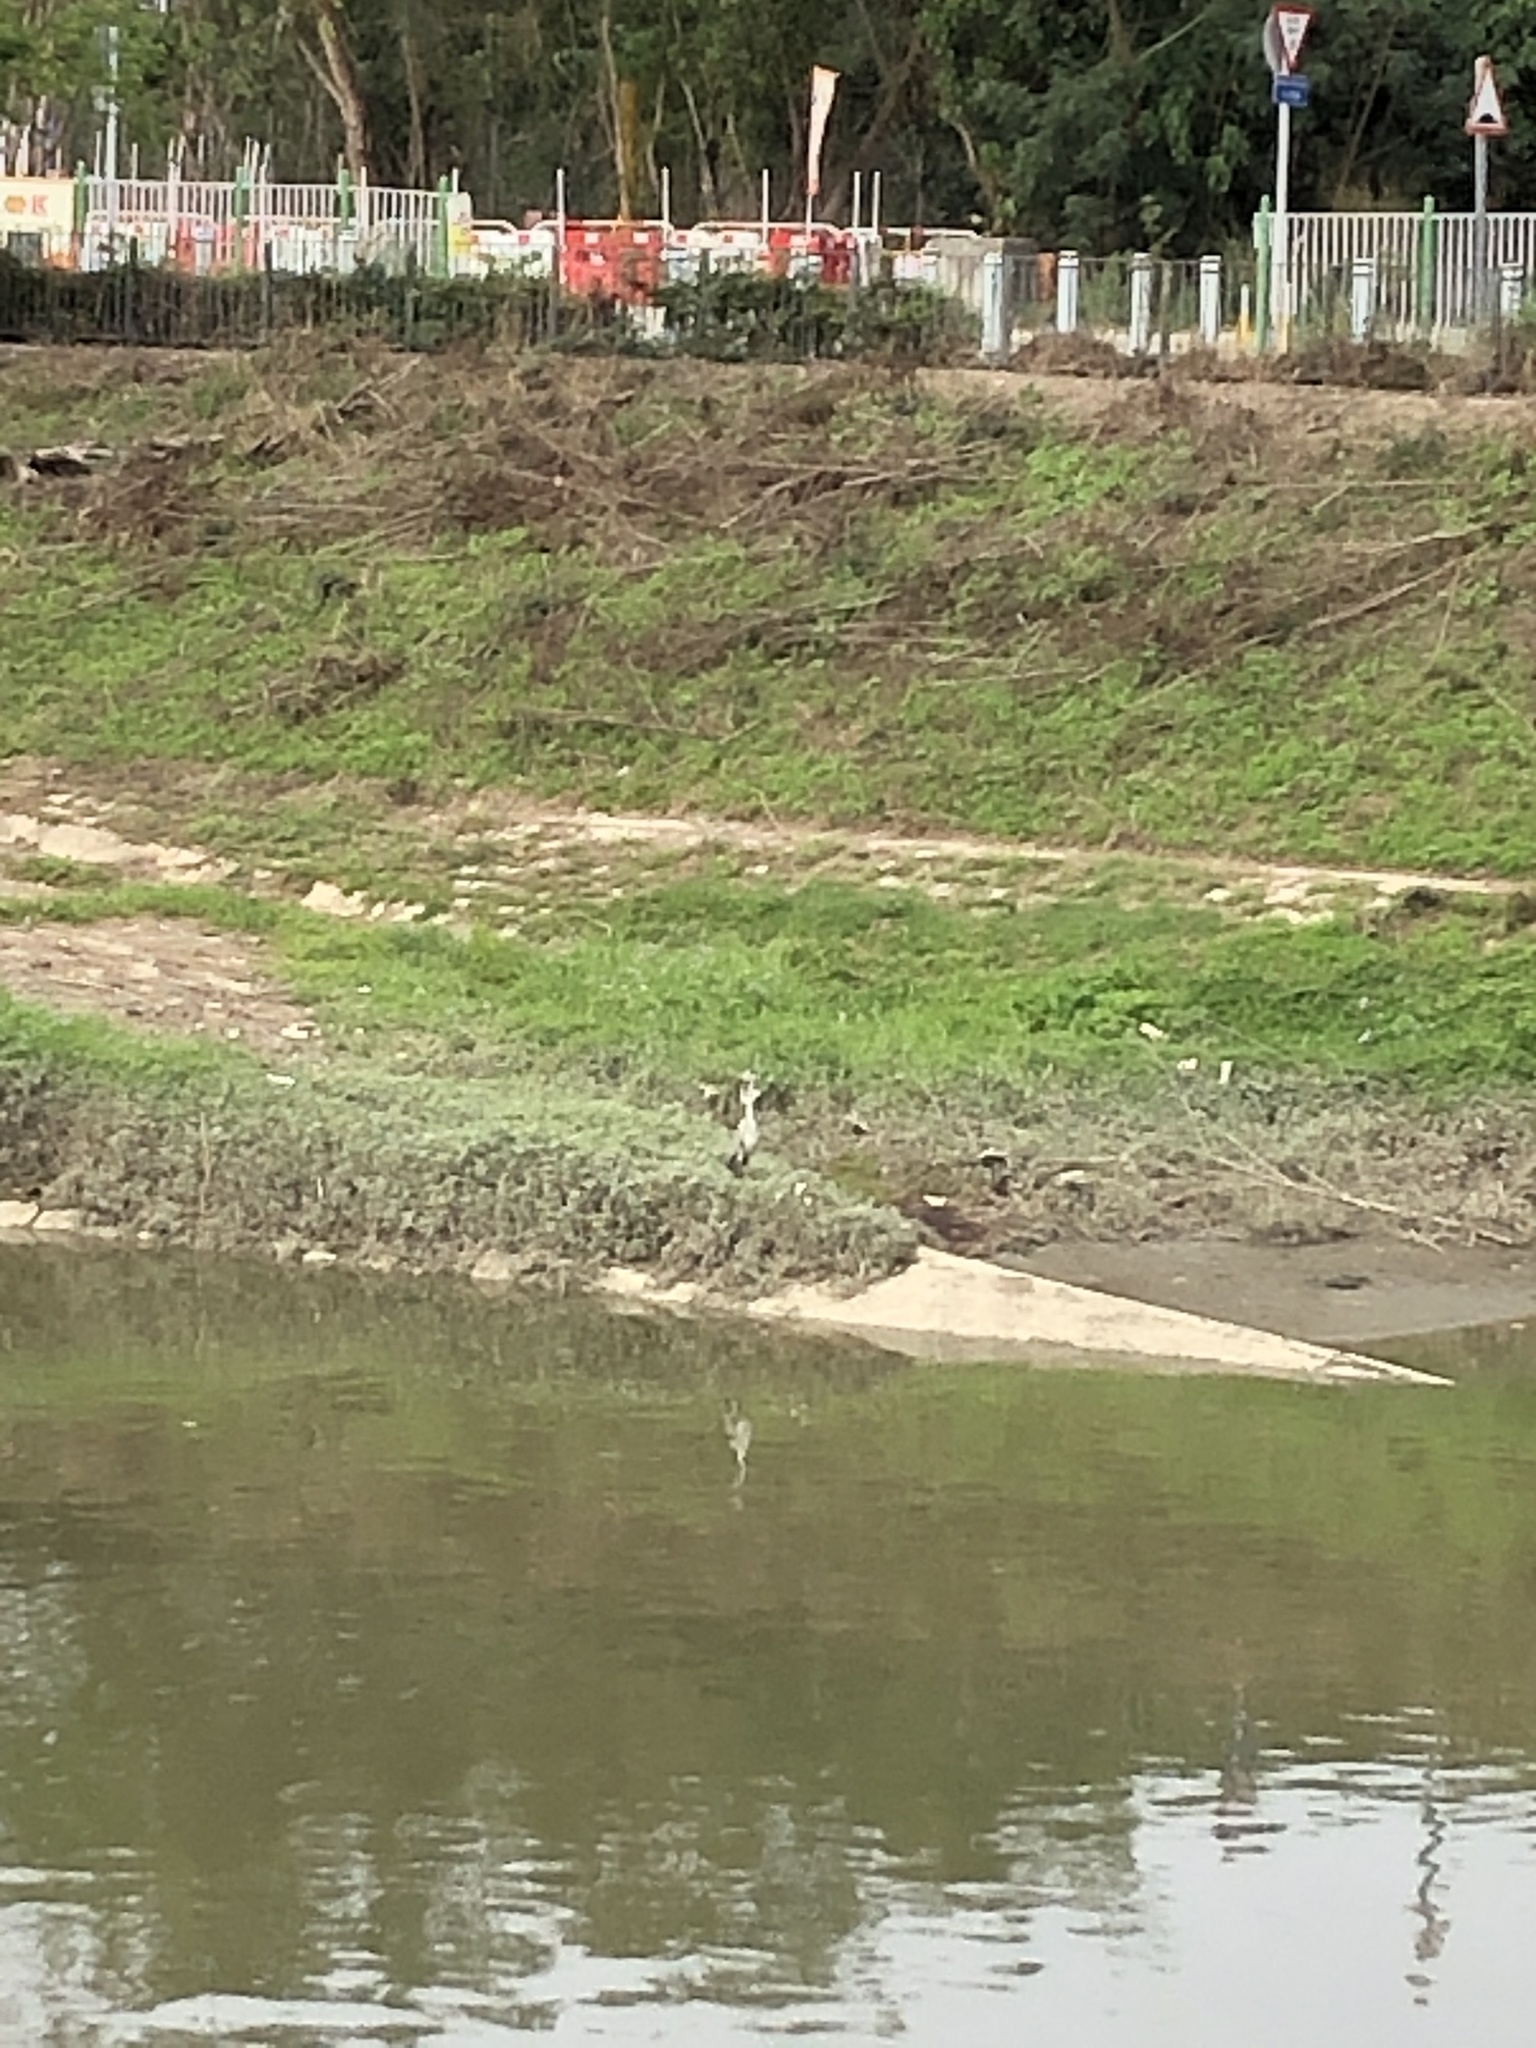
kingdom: Animalia
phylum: Chordata
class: Aves
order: Pelecaniformes
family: Ardeidae
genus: Ardea
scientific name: Ardea cinerea
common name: Grey heron
